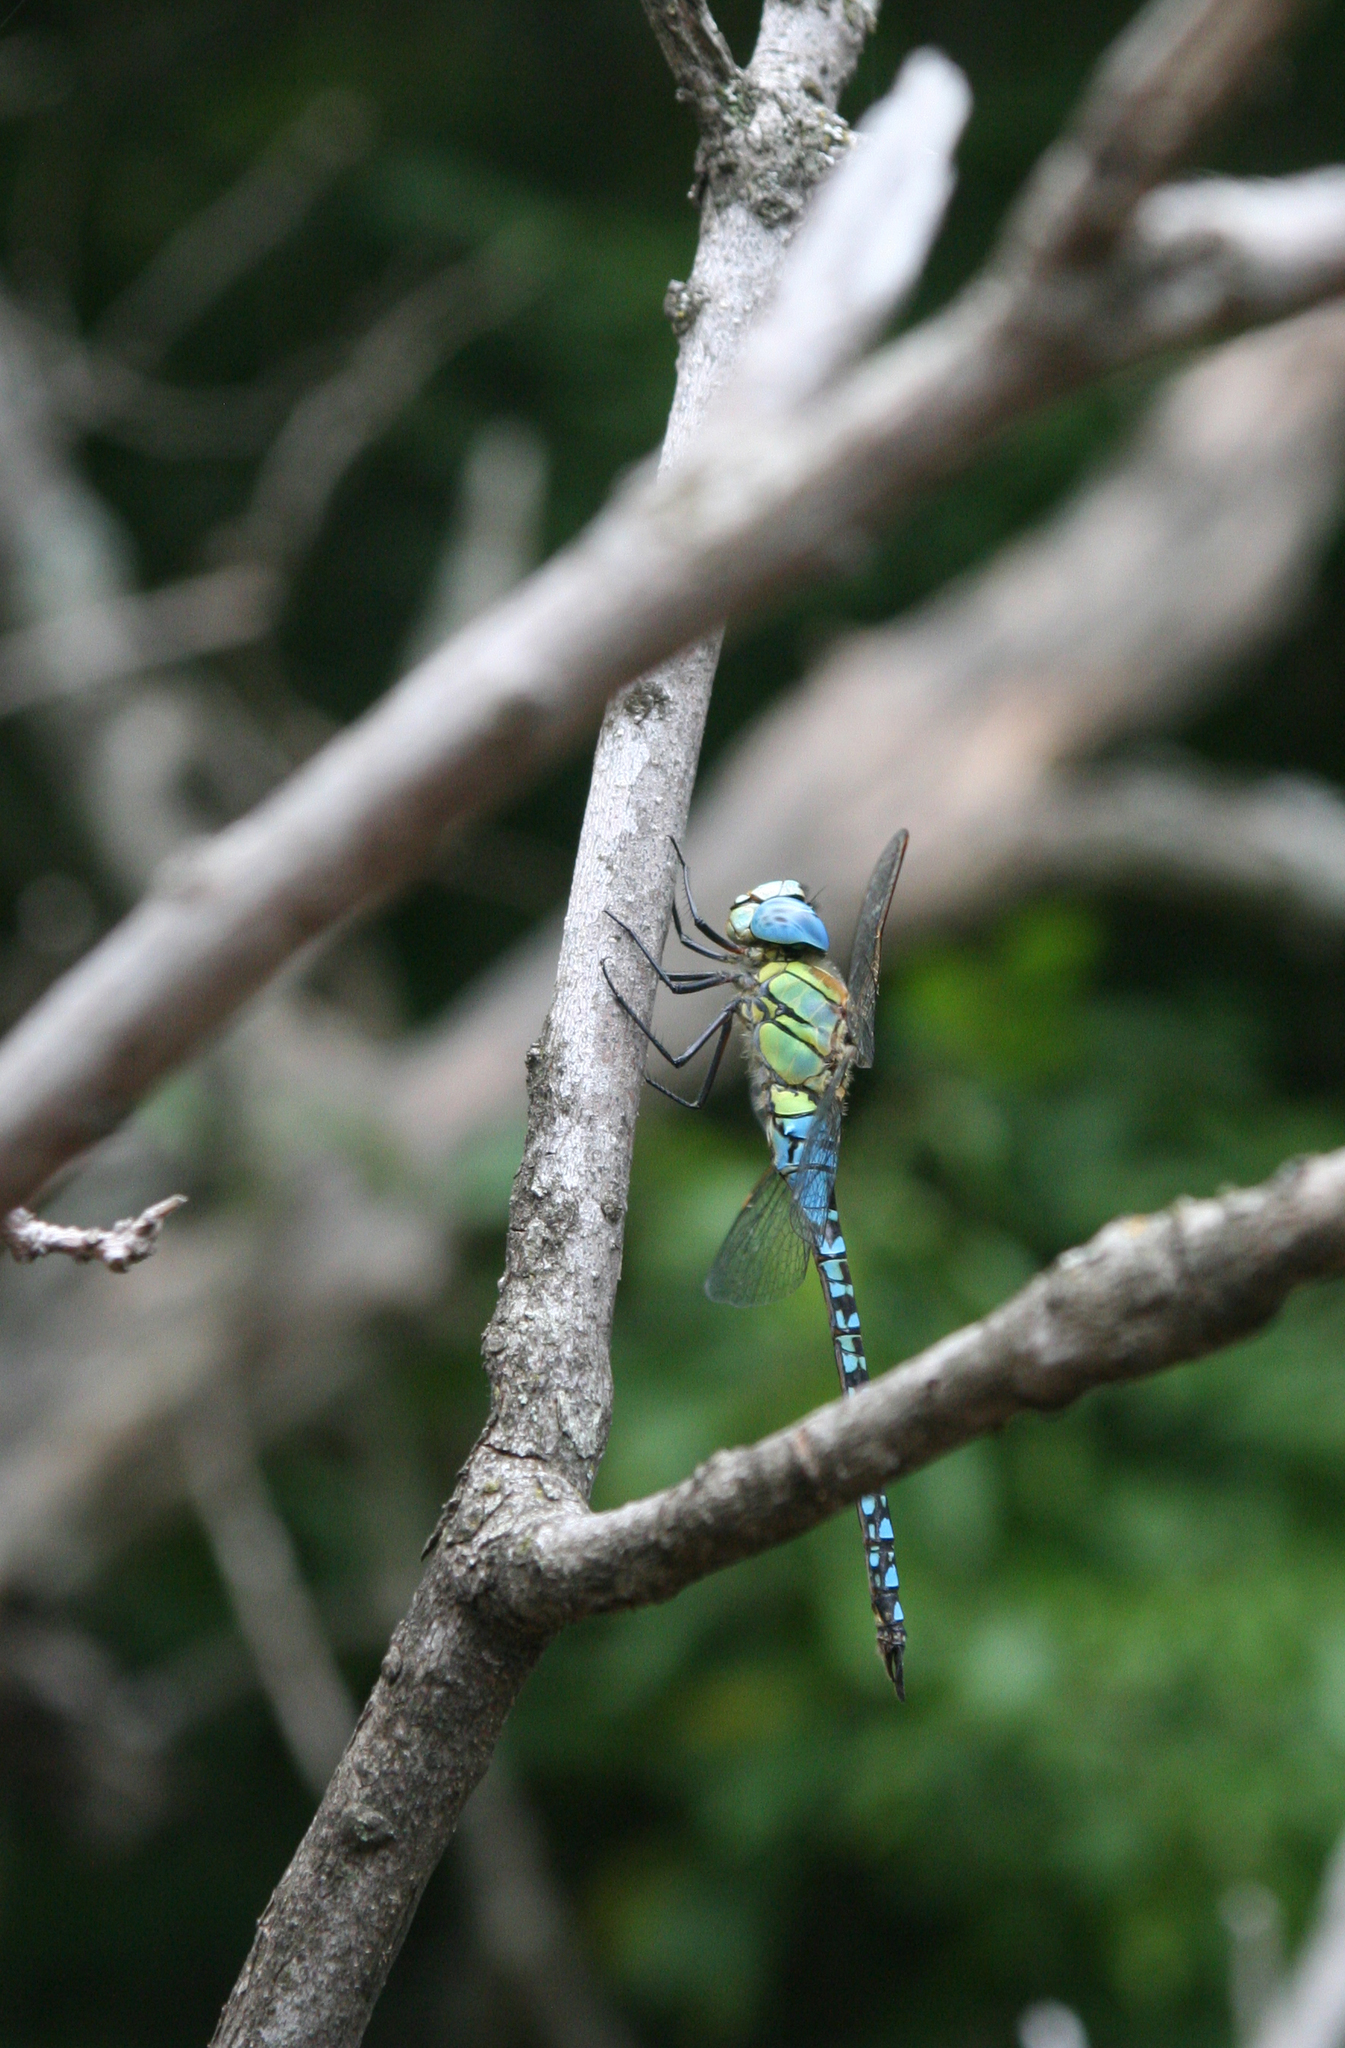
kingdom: Animalia
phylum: Arthropoda
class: Insecta
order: Odonata
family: Aeshnidae
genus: Aeshna
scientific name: Aeshna affinis
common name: Southern migrant hawker
